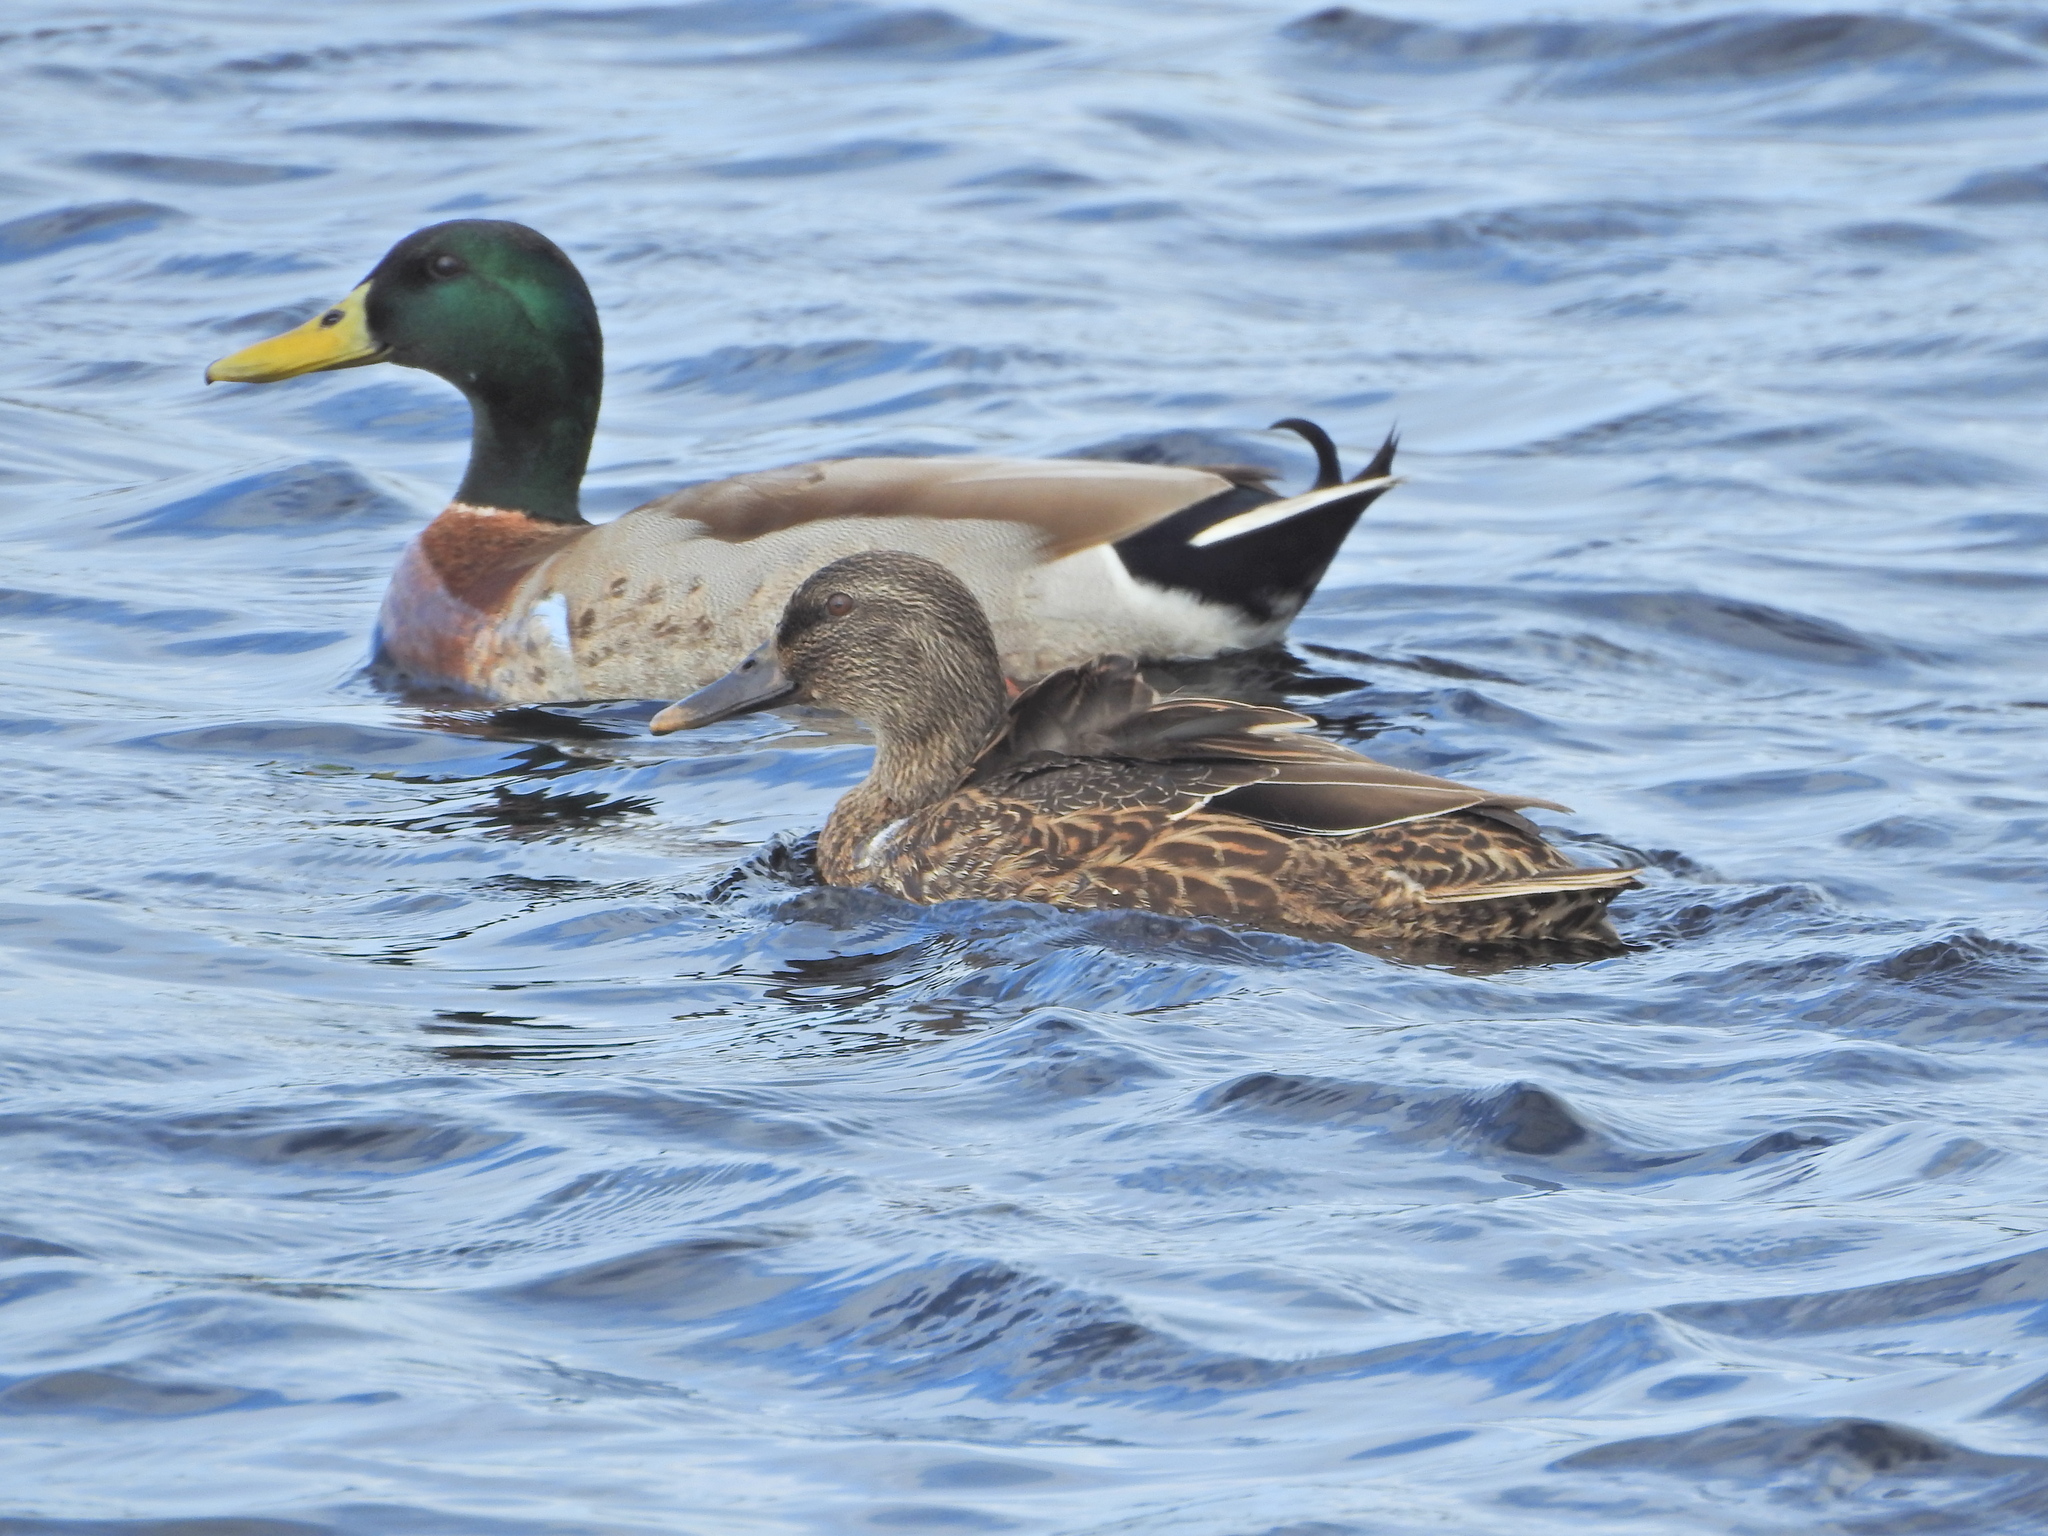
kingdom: Animalia
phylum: Chordata
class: Aves
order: Anseriformes
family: Anatidae
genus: Anas
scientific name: Anas
